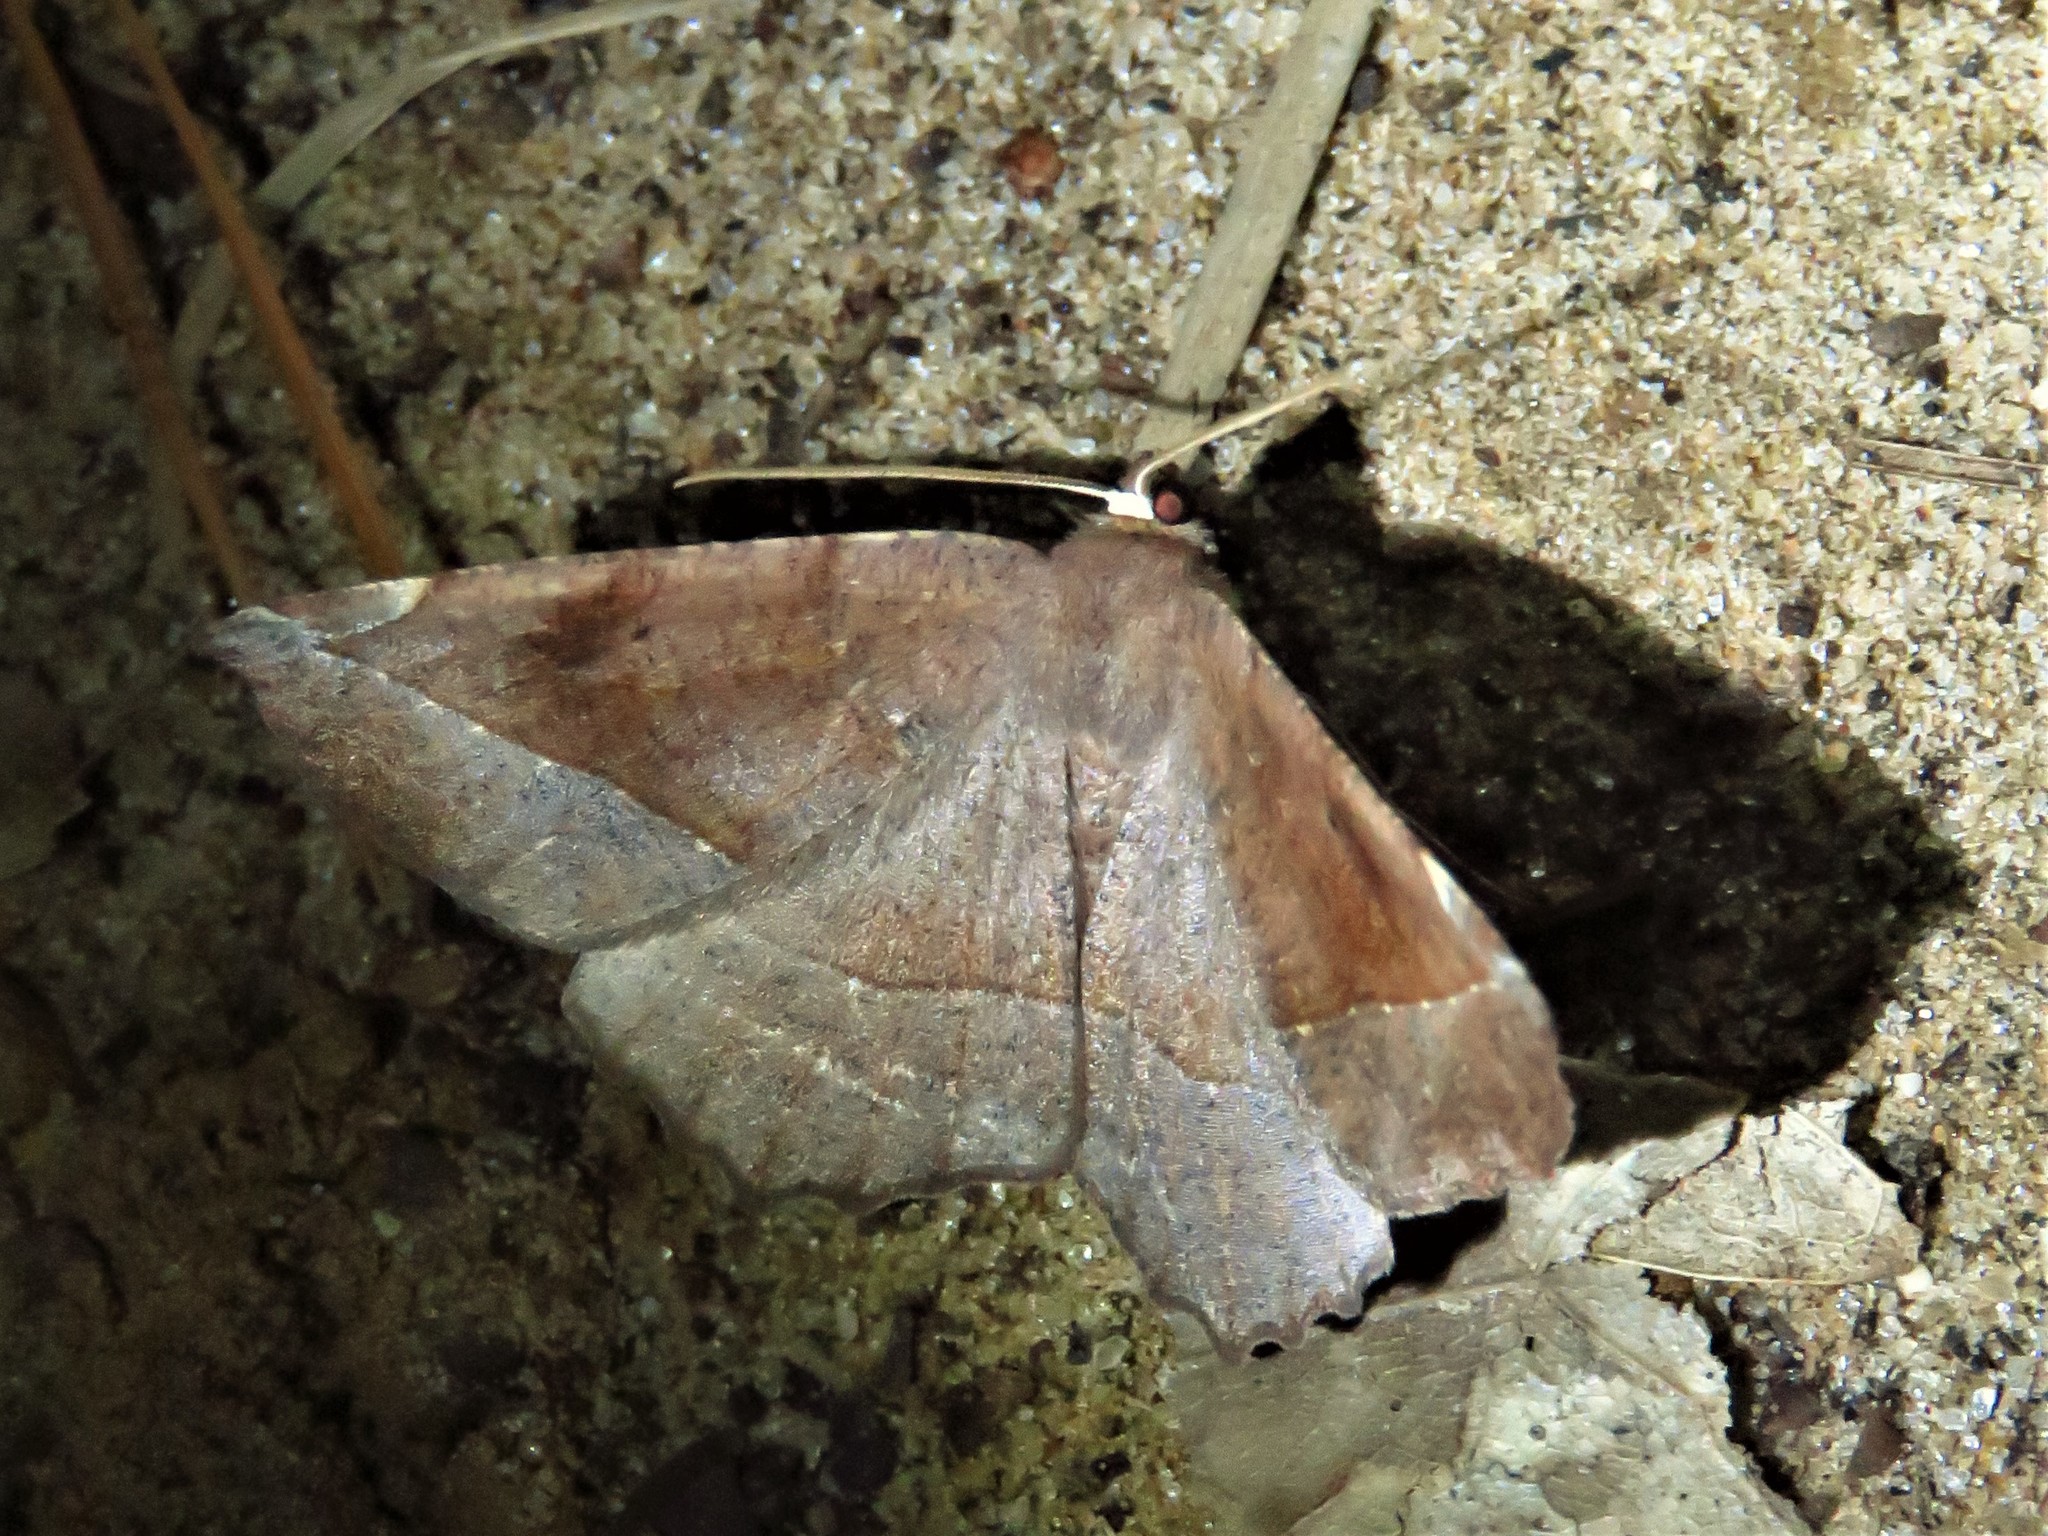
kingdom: Animalia
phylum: Arthropoda
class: Insecta
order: Lepidoptera
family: Geometridae
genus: Eutrapela
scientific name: Eutrapela clemataria
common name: Curved-toothed geometer
